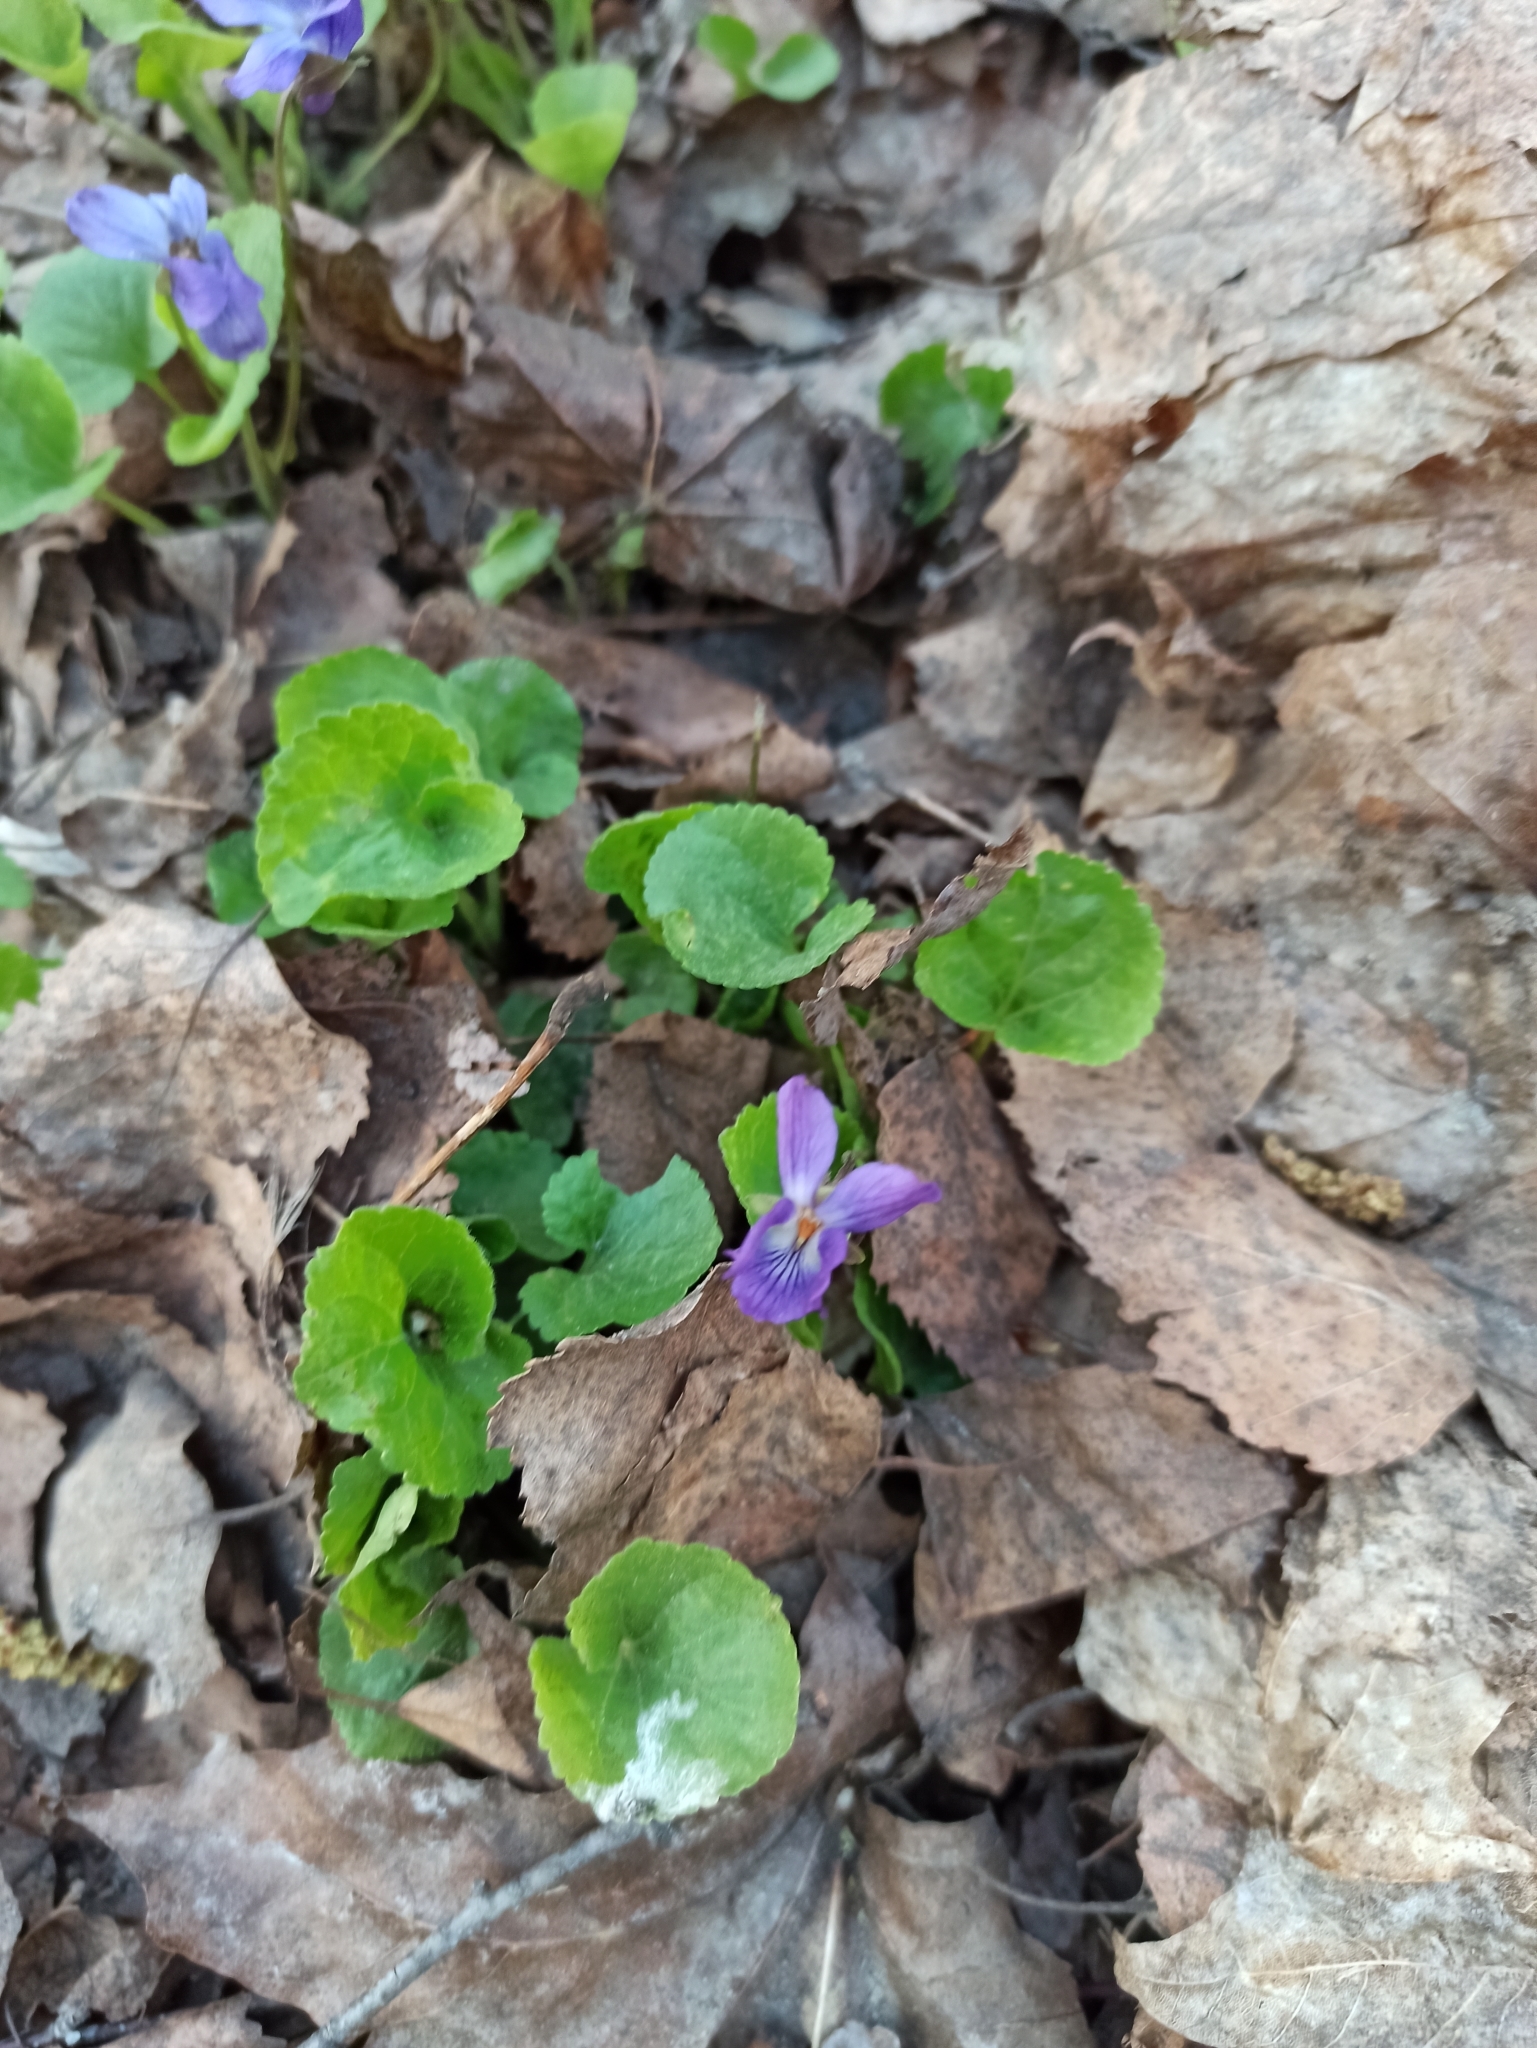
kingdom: Plantae
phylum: Tracheophyta
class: Magnoliopsida
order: Malpighiales
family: Violaceae
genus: Viola
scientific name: Viola odorata
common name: Sweet violet
